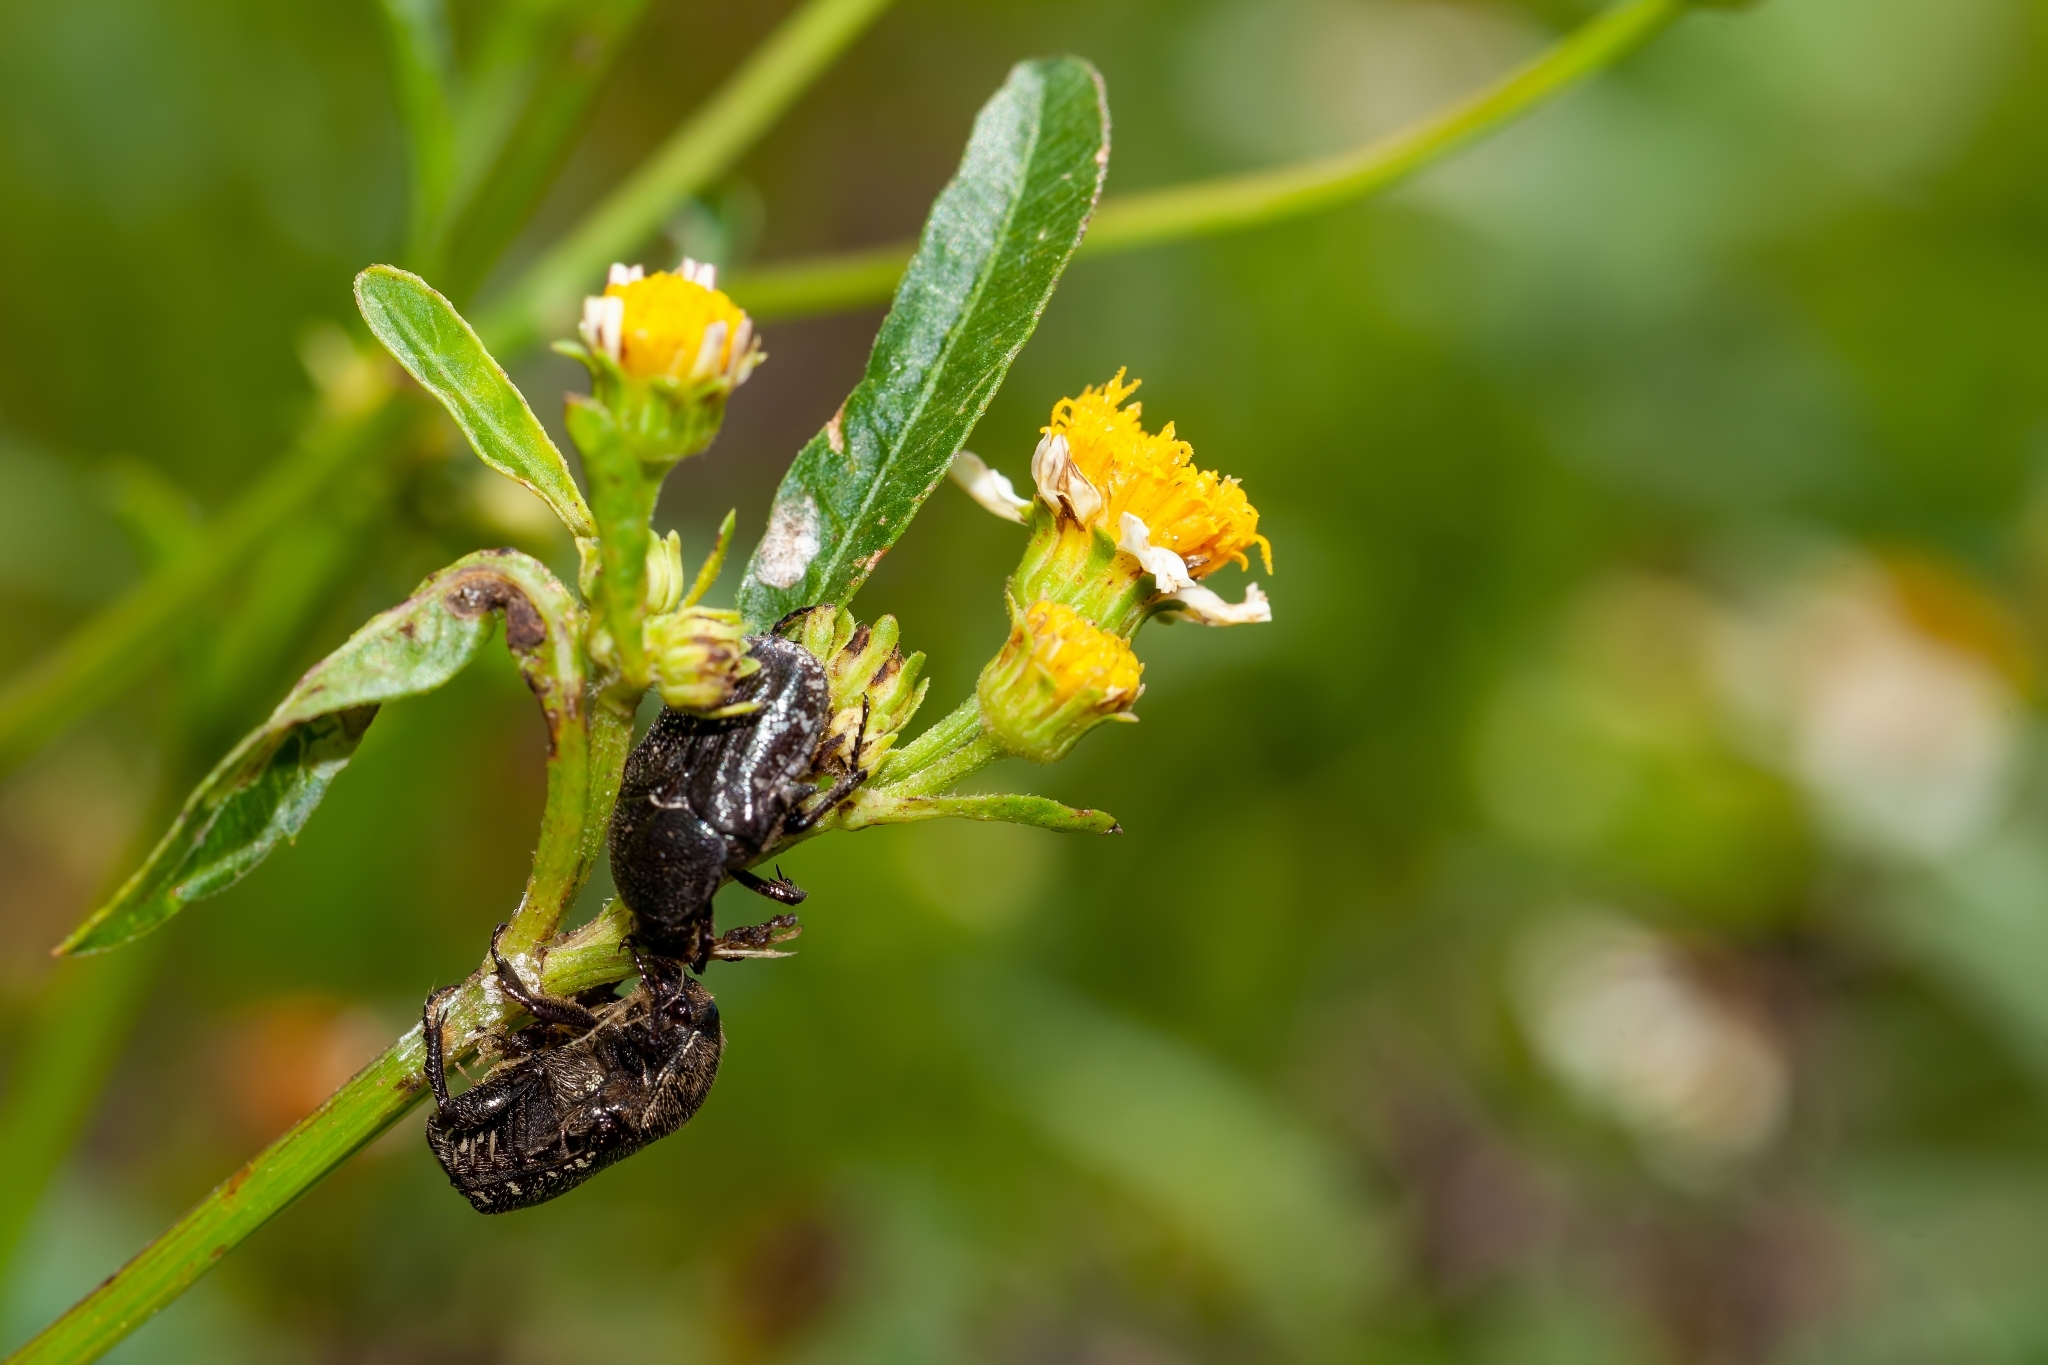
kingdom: Animalia
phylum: Arthropoda
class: Insecta
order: Coleoptera
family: Scarabaeidae
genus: Euphoria
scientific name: Euphoria sepulcralis
